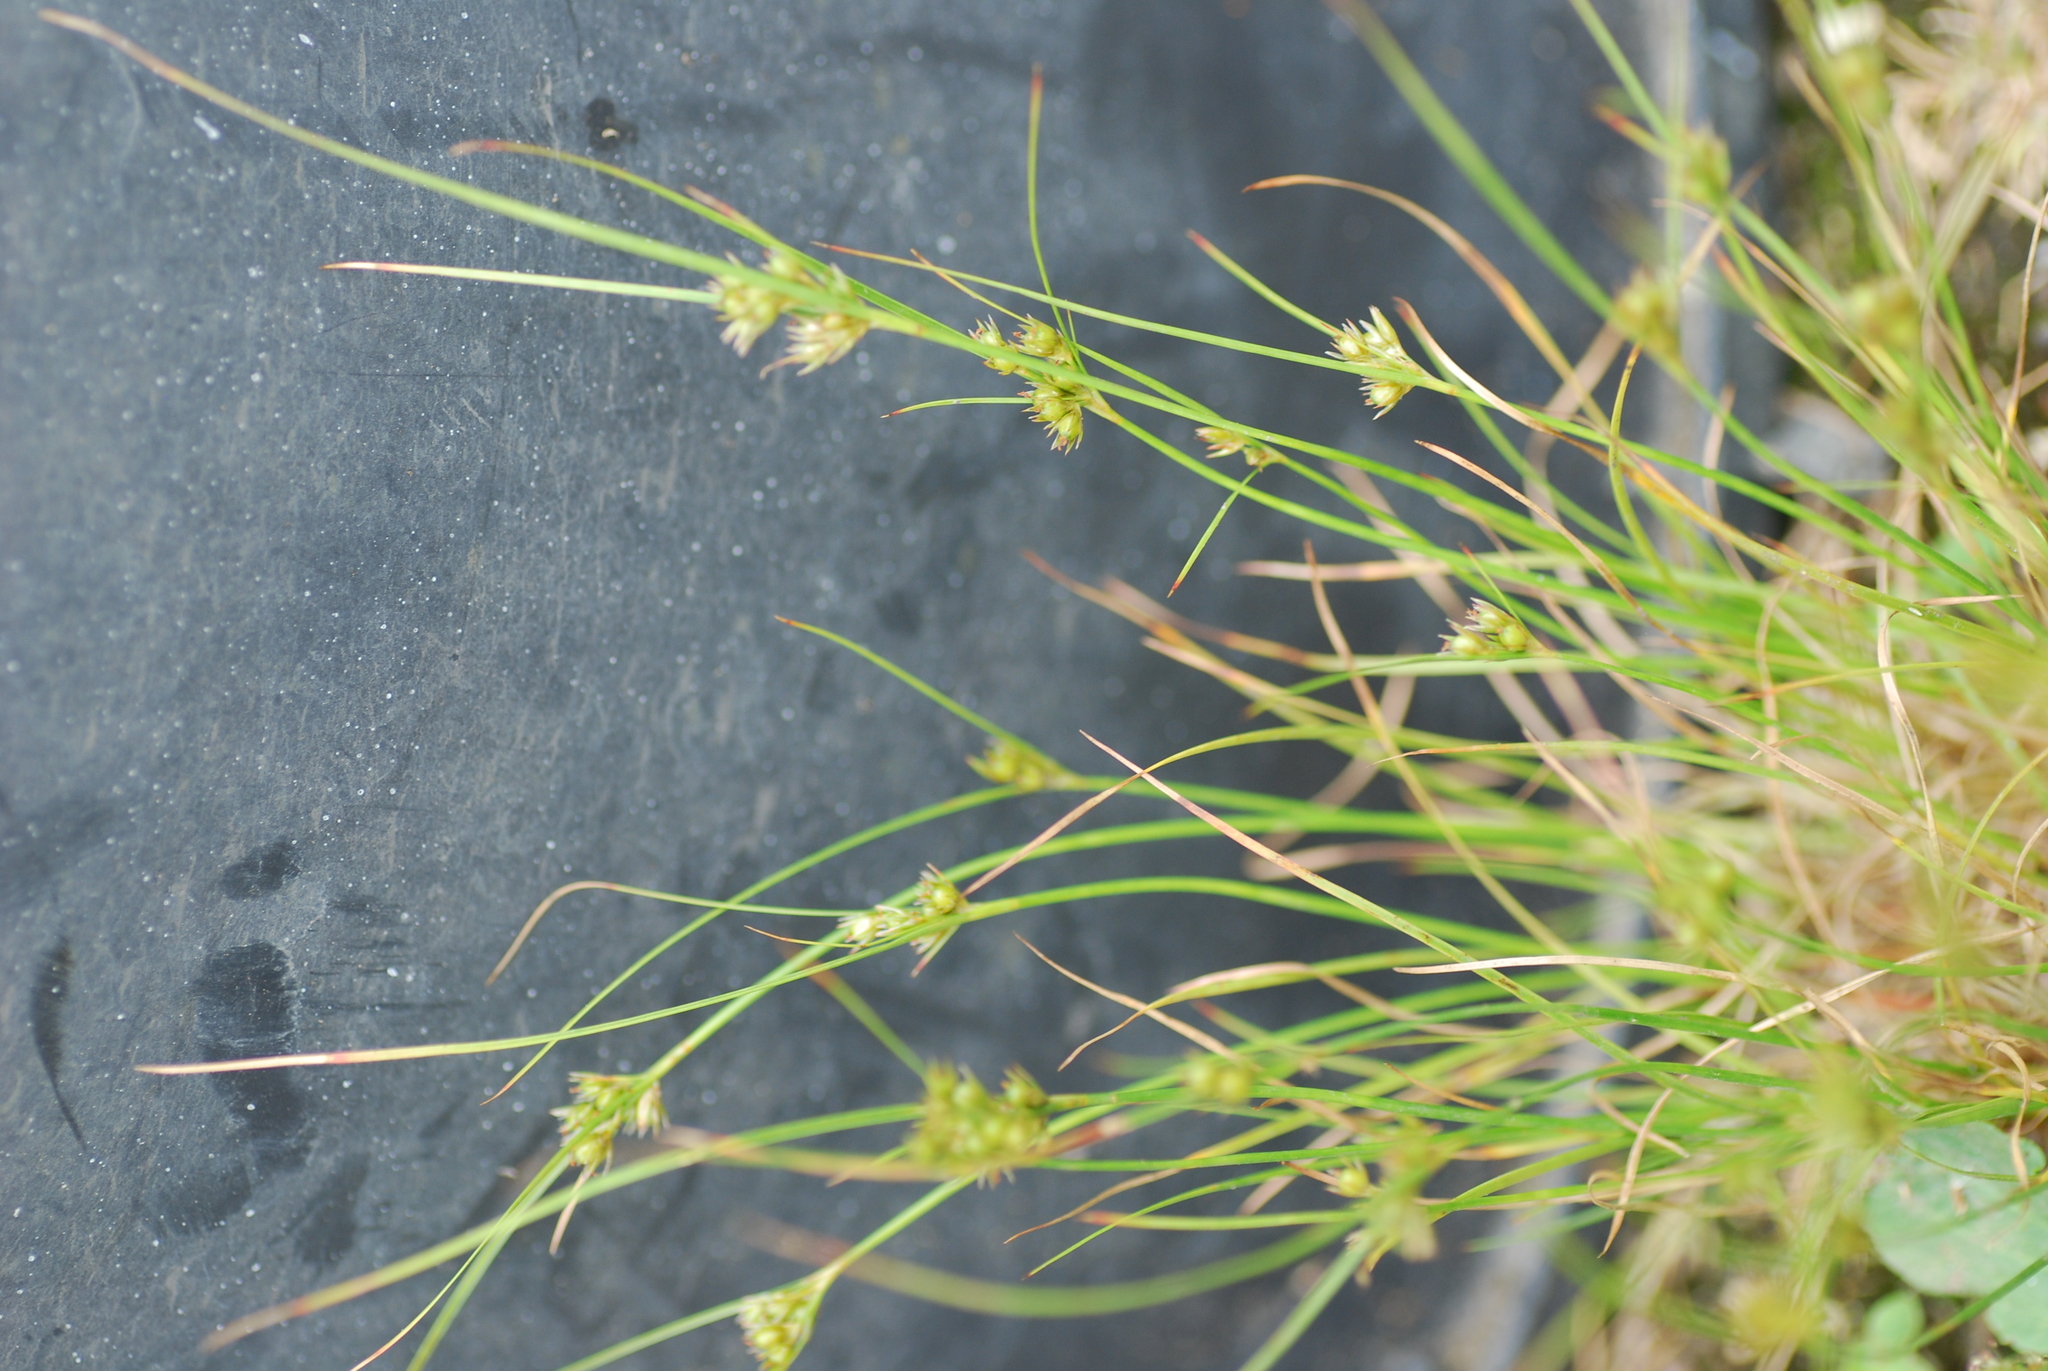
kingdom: Plantae
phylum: Tracheophyta
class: Liliopsida
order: Poales
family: Juncaceae
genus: Juncus
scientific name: Juncus tenuis
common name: Slender rush
